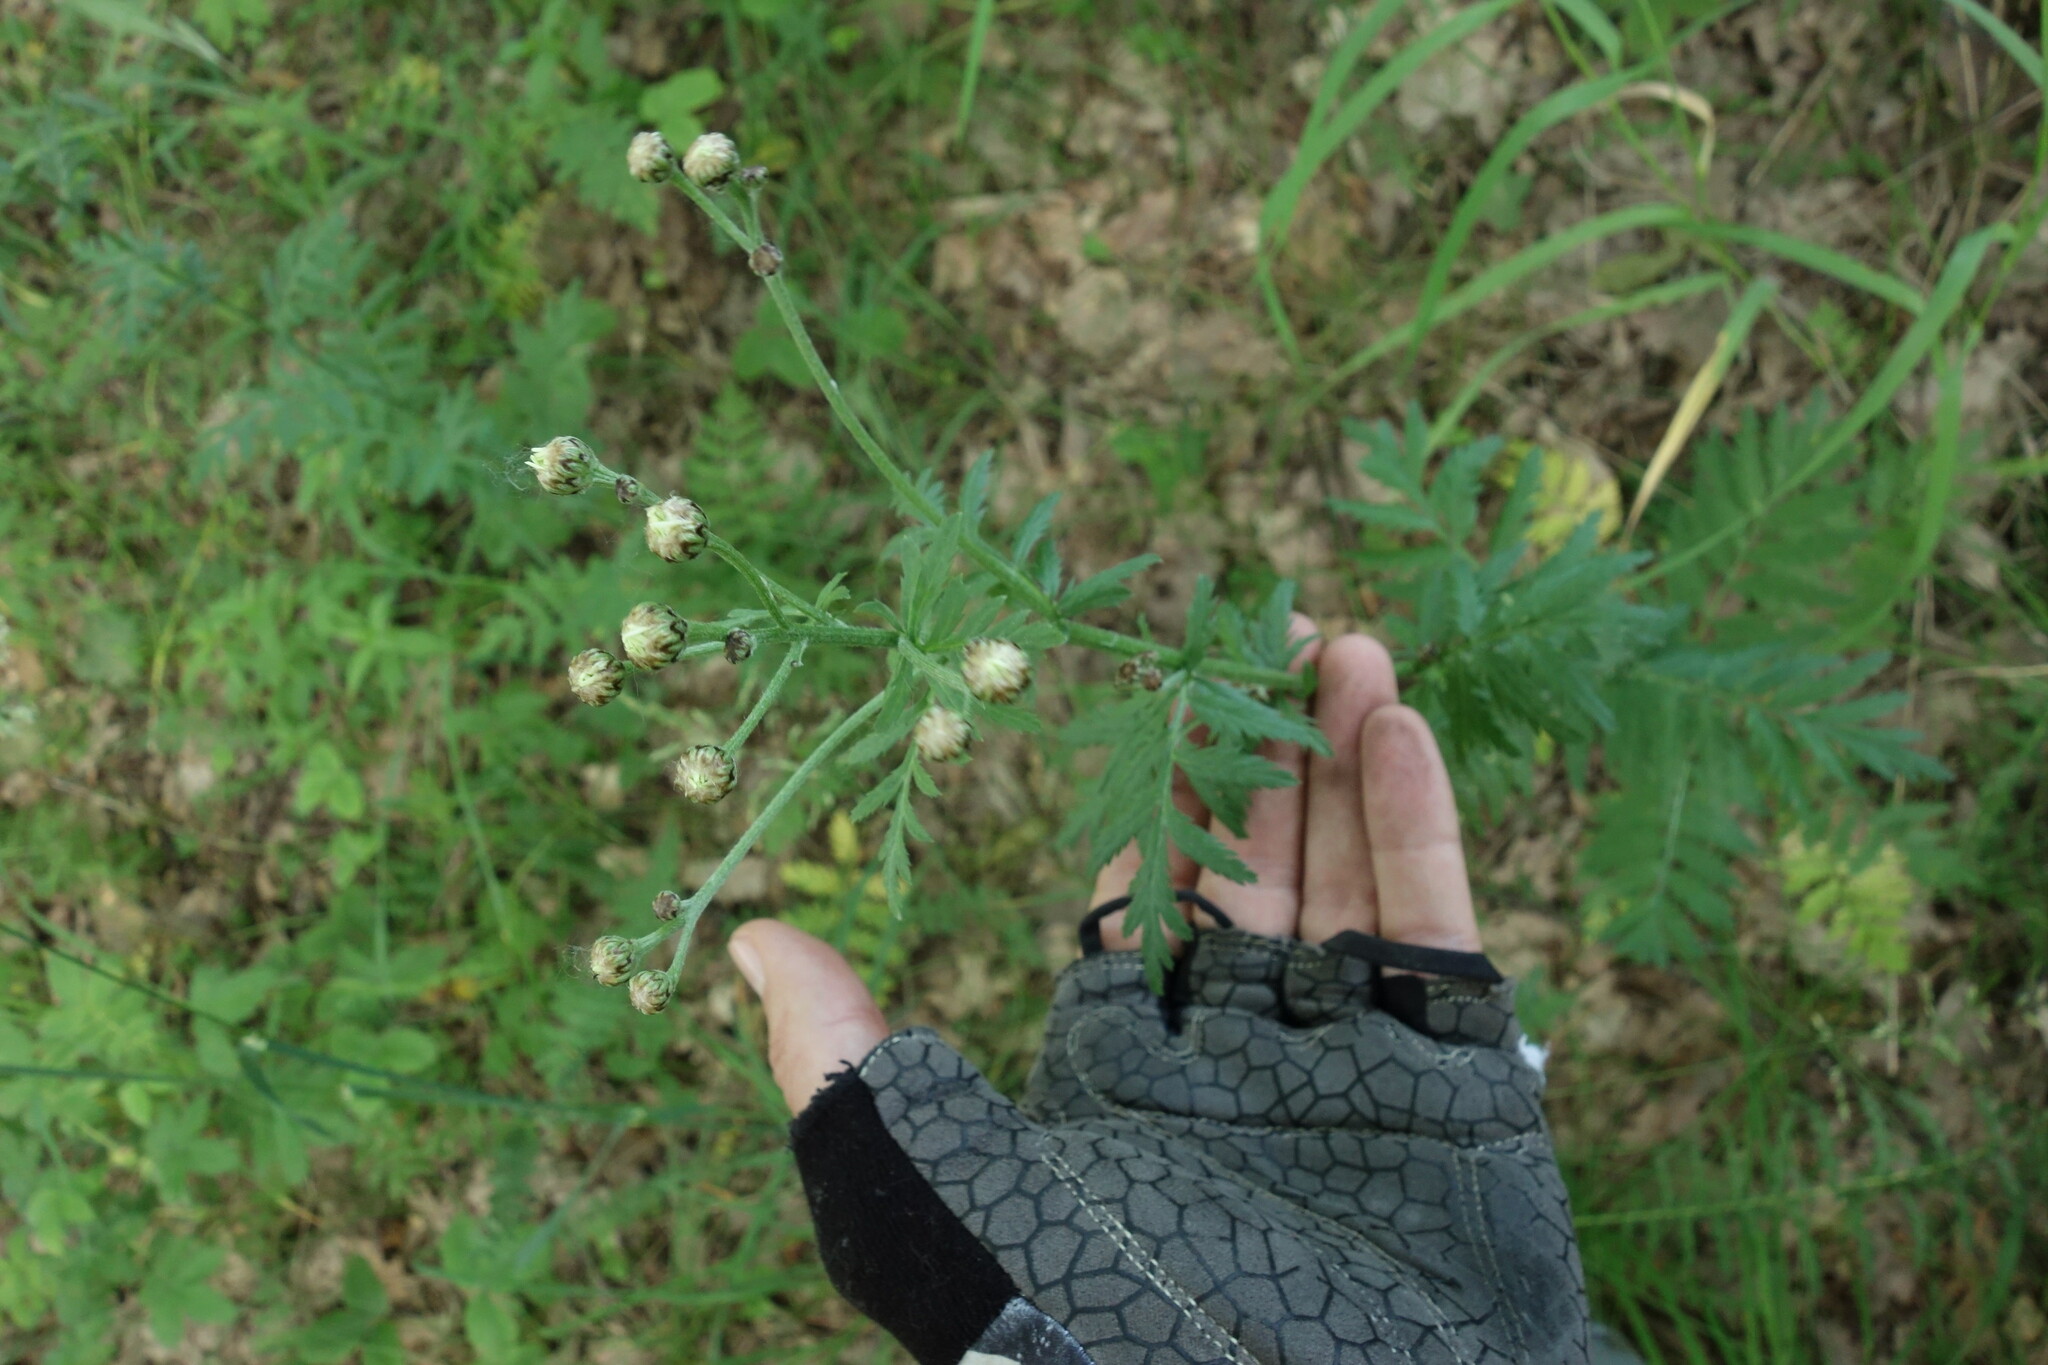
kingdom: Plantae
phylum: Tracheophyta
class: Magnoliopsida
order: Asterales
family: Asteraceae
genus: Tanacetum
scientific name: Tanacetum corymbosum
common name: Scentless feverfew
